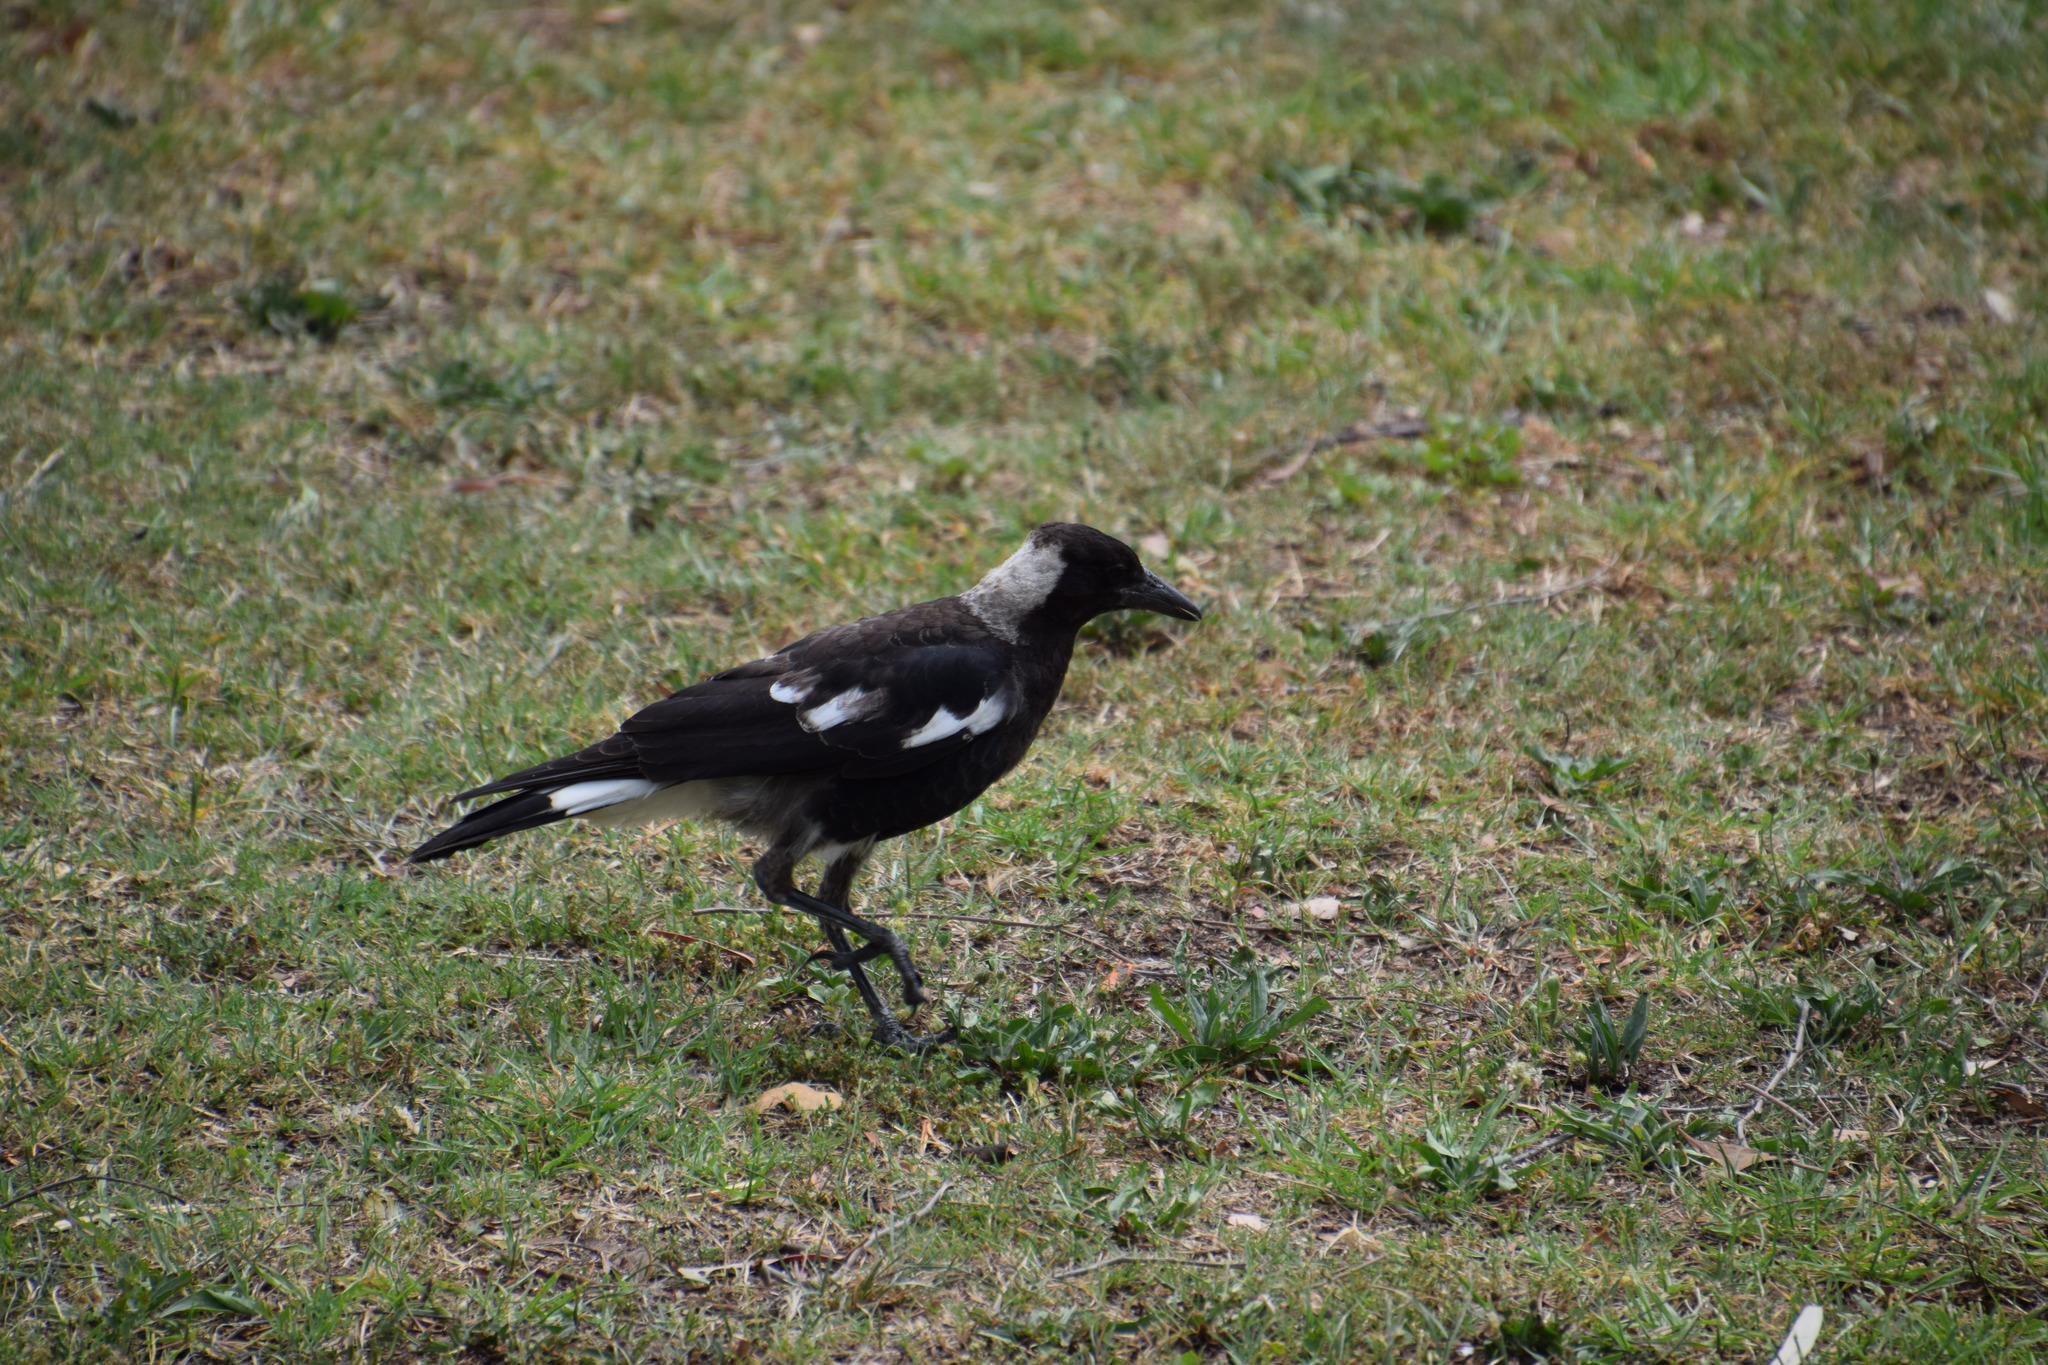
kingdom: Animalia
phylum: Chordata
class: Aves
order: Passeriformes
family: Cracticidae
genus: Gymnorhina
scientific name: Gymnorhina tibicen
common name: Australian magpie
